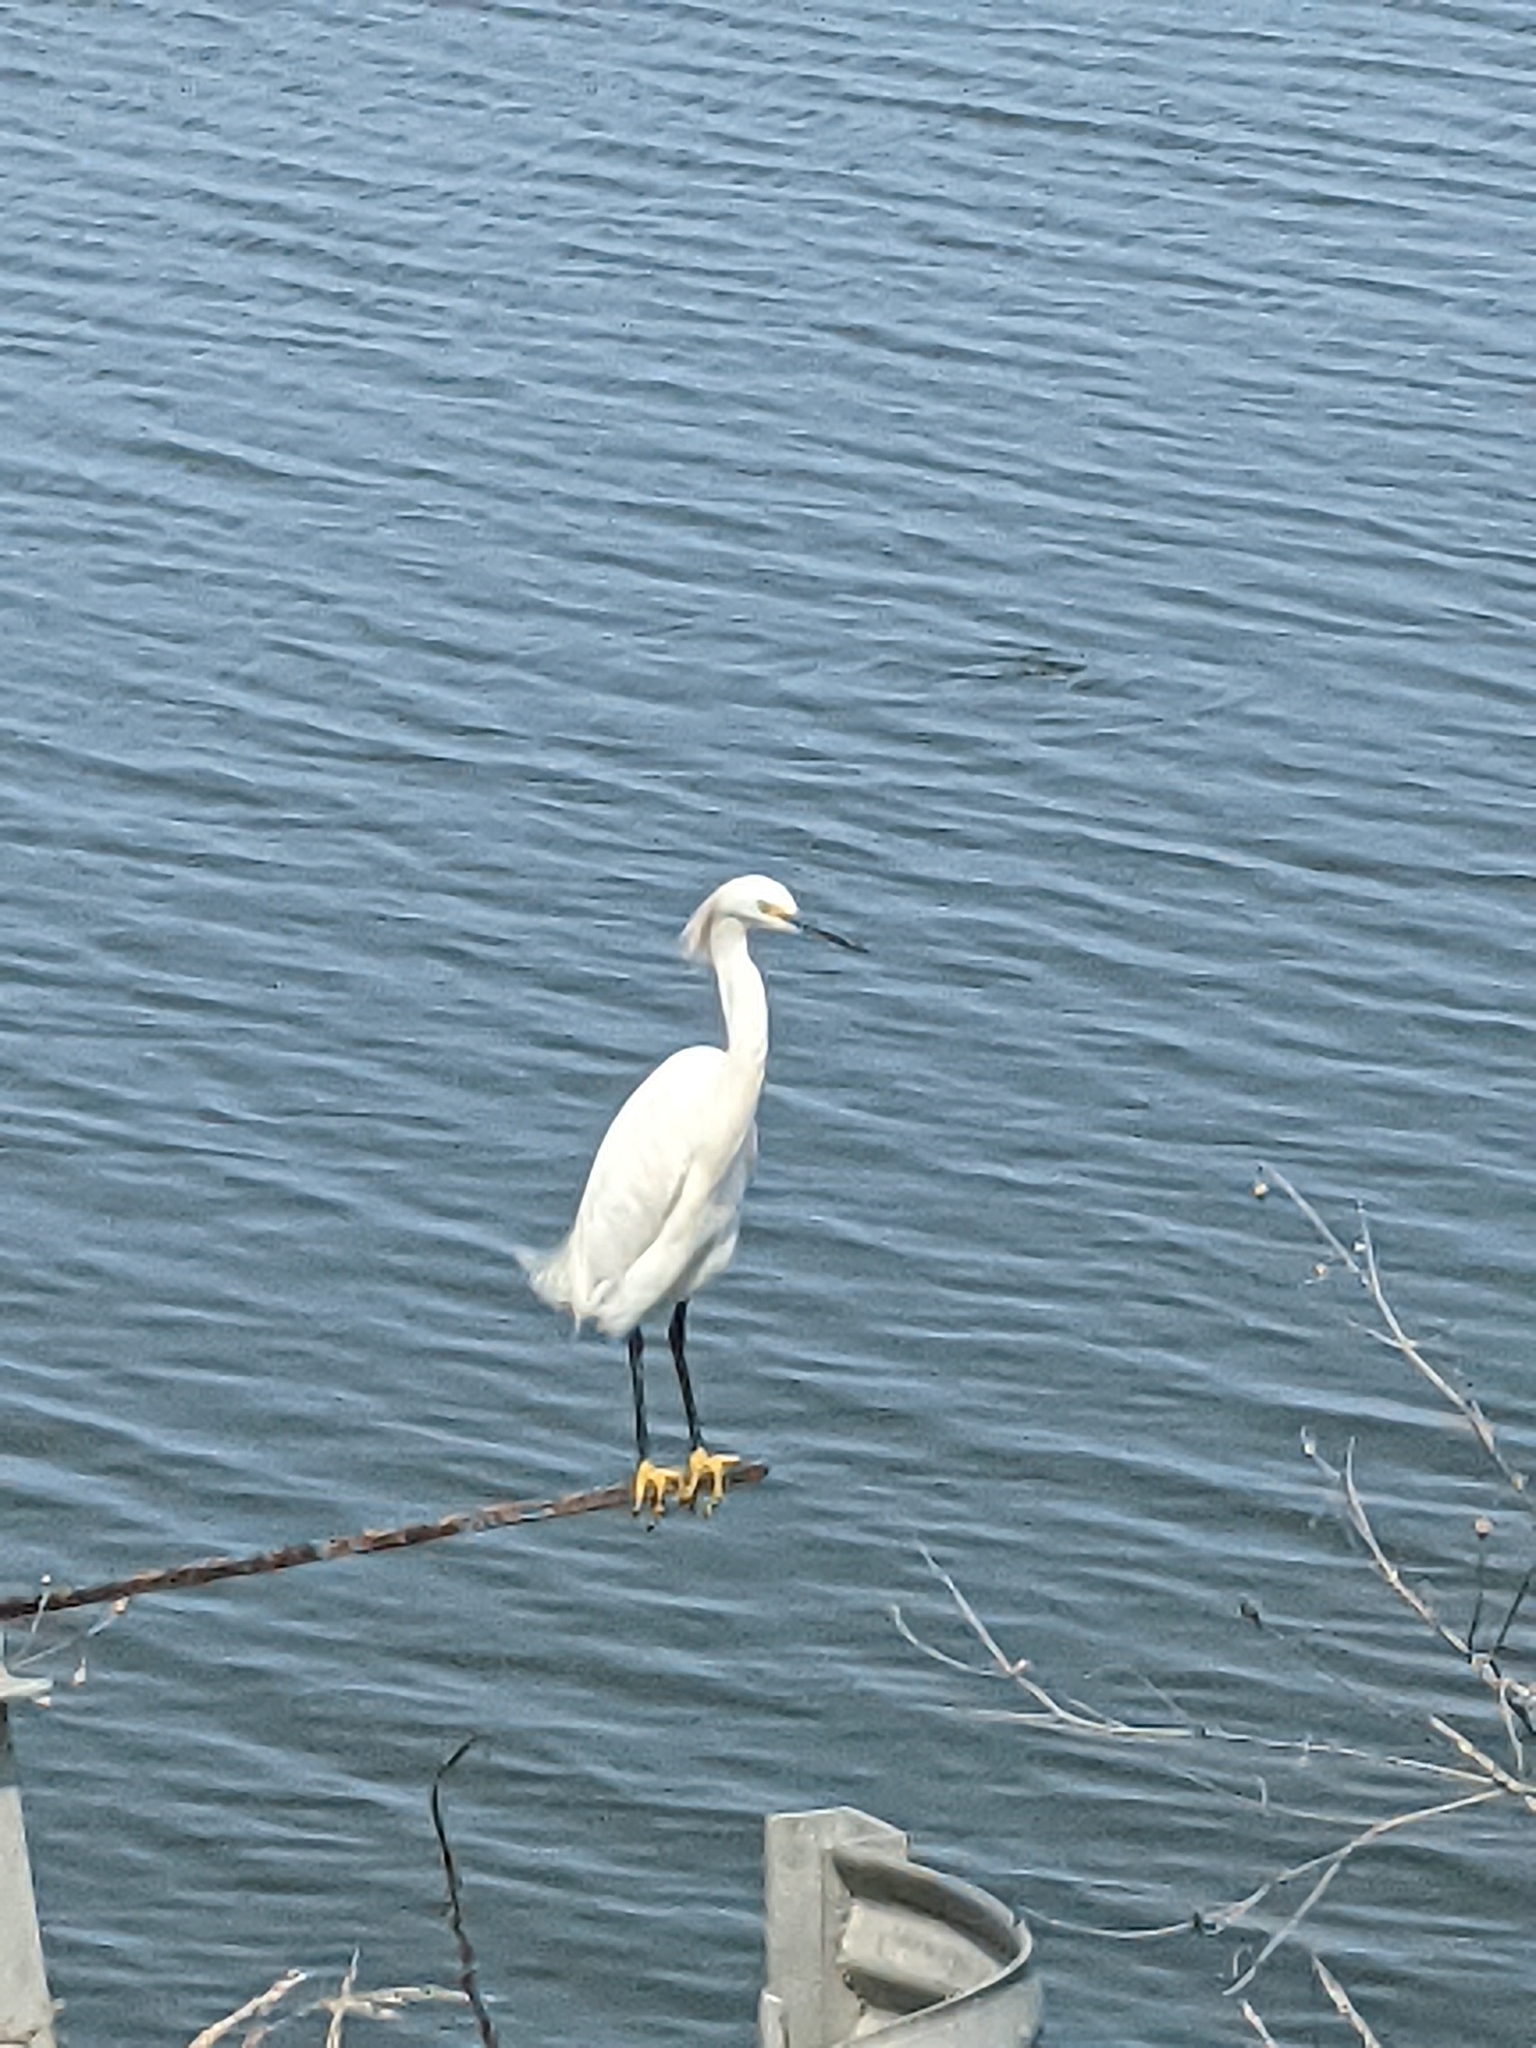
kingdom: Animalia
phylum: Chordata
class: Aves
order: Pelecaniformes
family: Ardeidae
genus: Egretta
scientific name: Egretta thula
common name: Snowy egret
